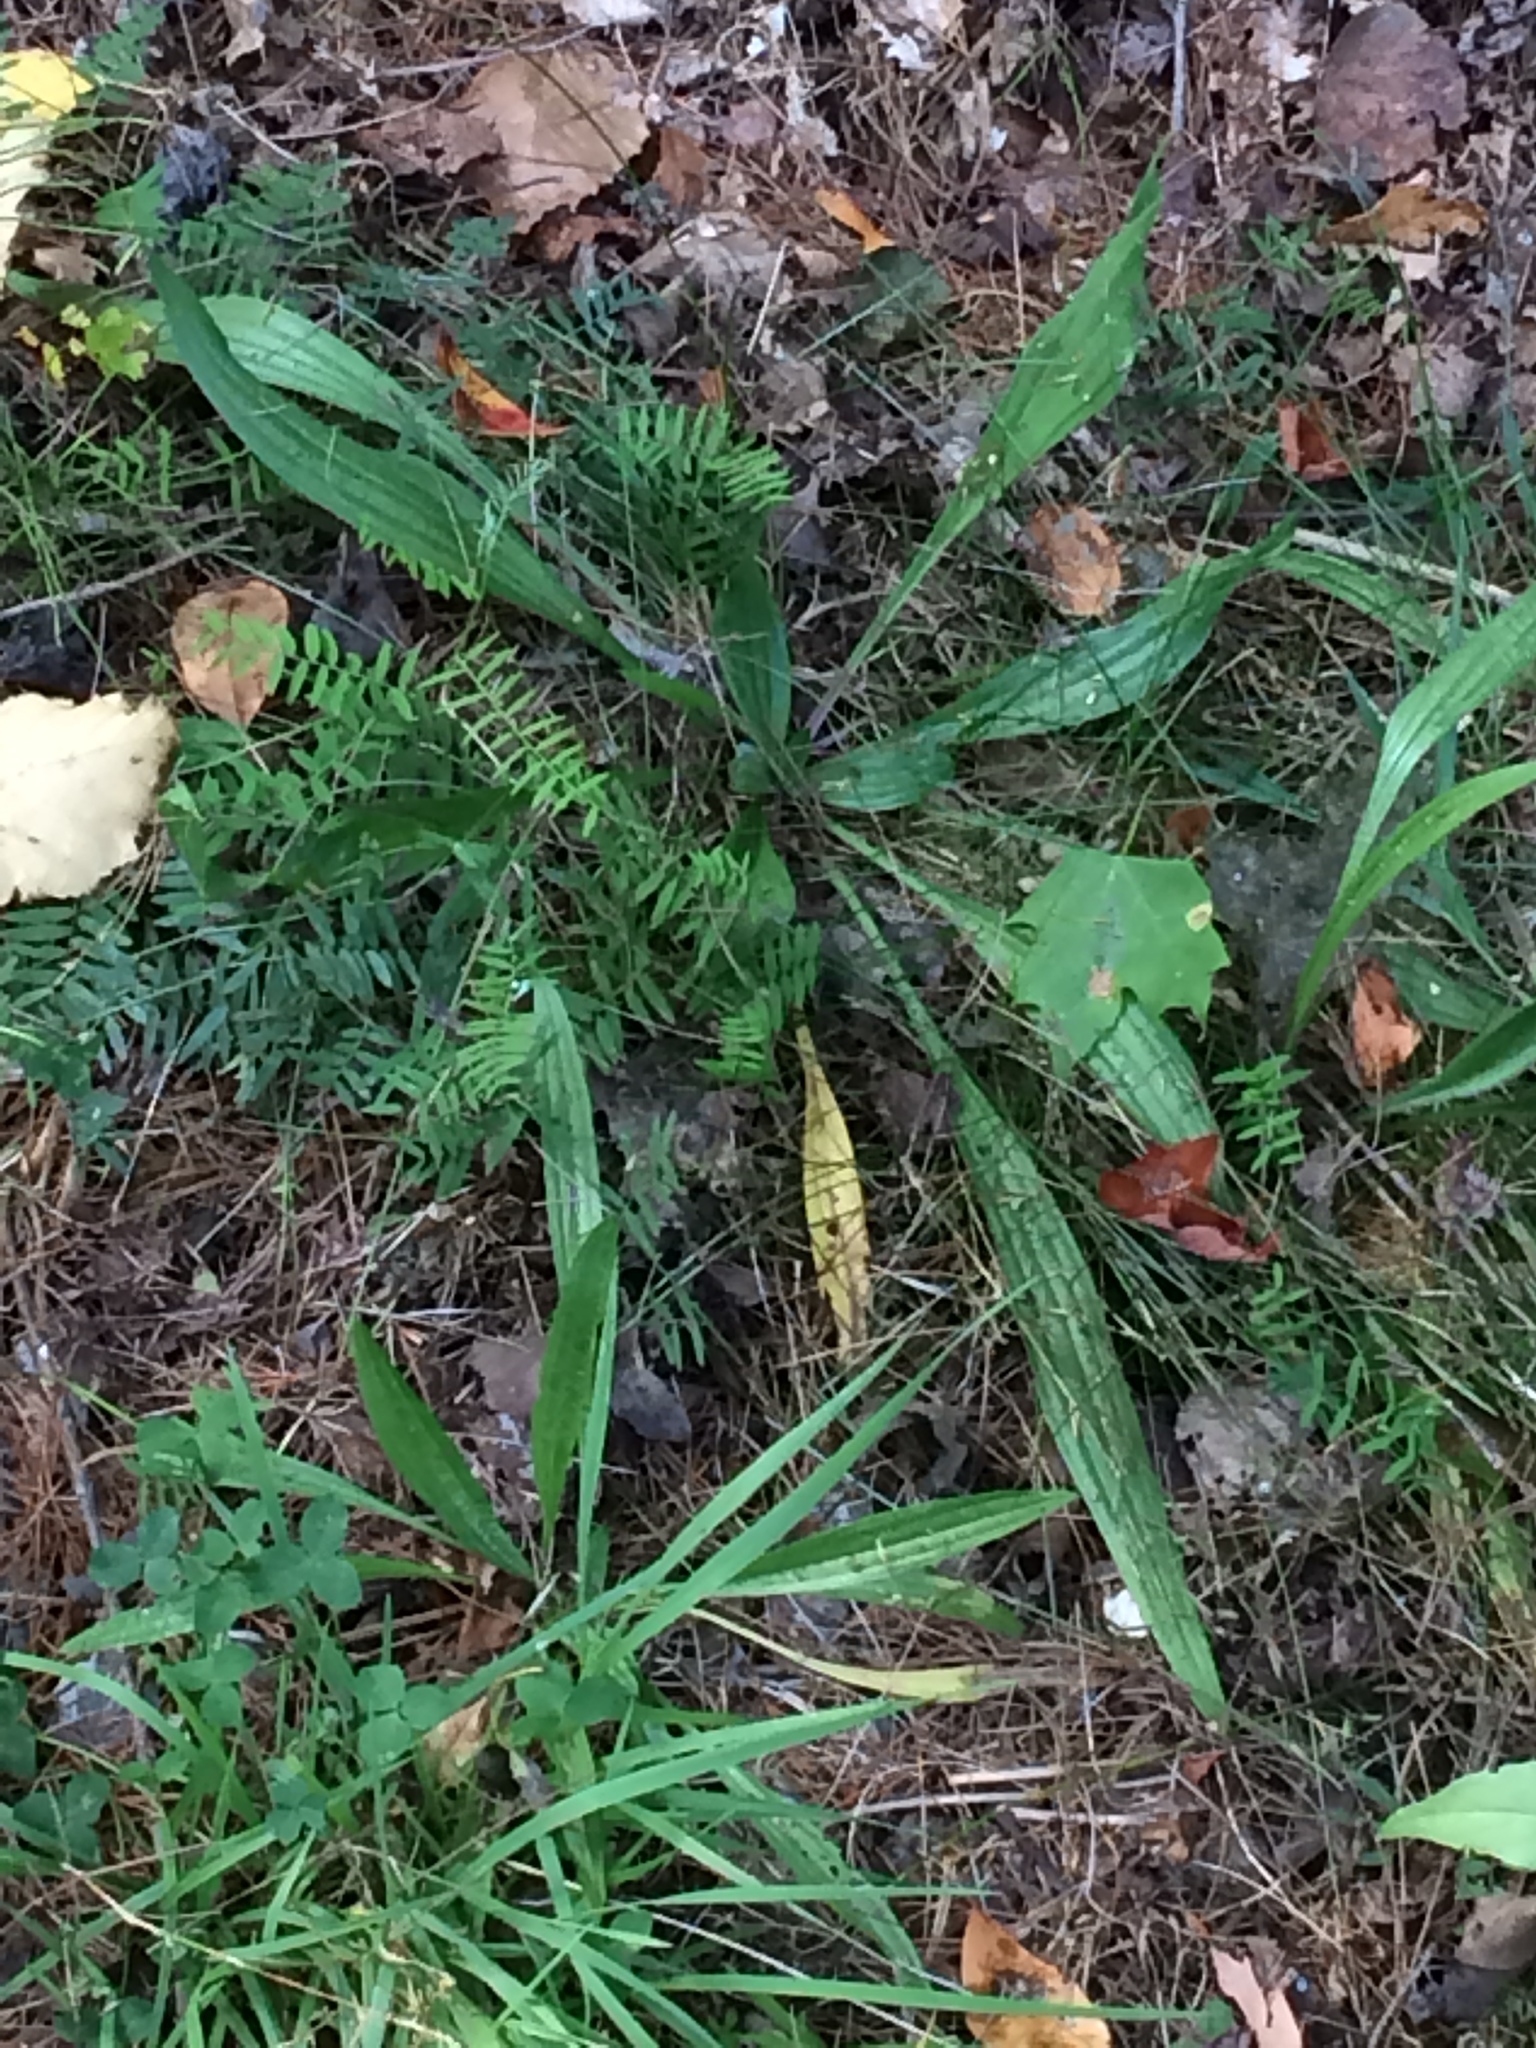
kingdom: Plantae
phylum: Tracheophyta
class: Magnoliopsida
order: Lamiales
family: Plantaginaceae
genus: Plantago
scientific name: Plantago lanceolata
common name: Ribwort plantain
